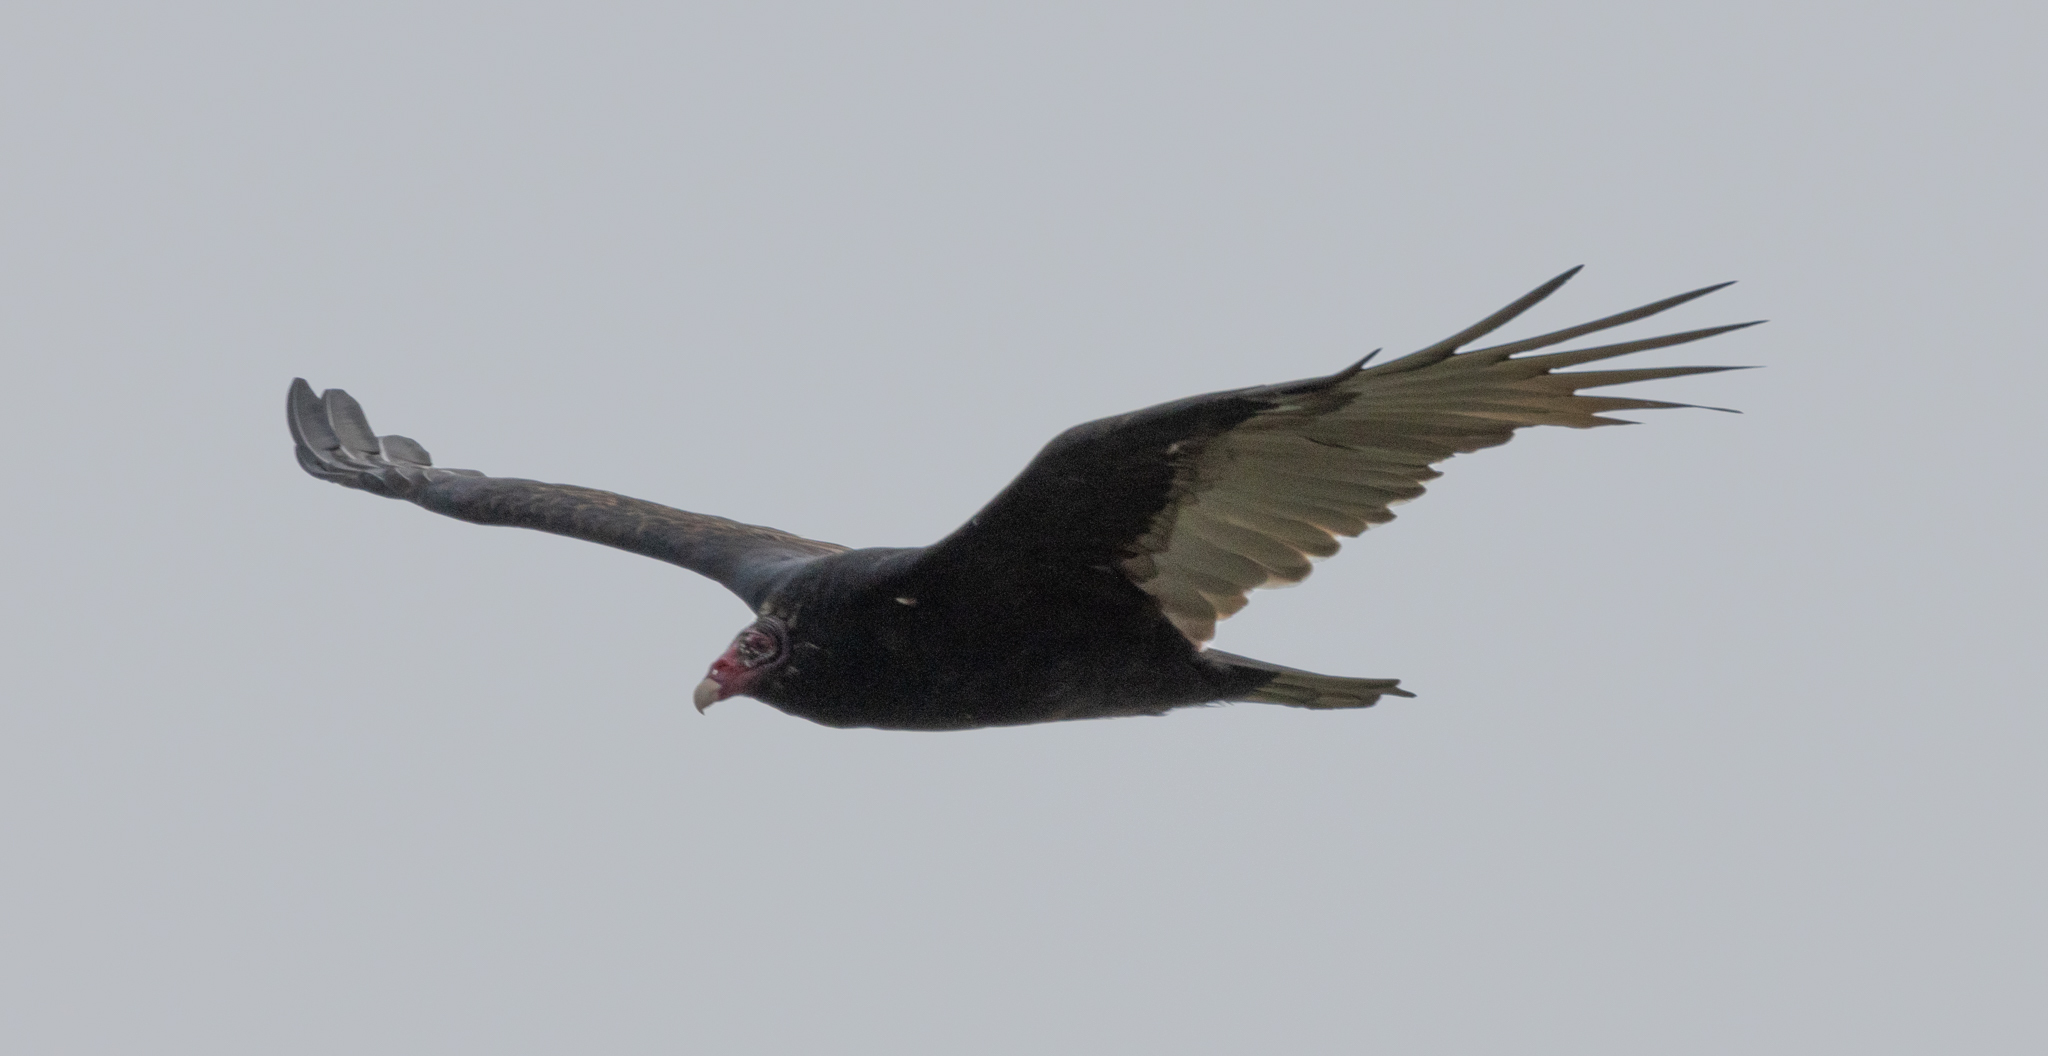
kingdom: Animalia
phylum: Chordata
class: Aves
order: Accipitriformes
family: Cathartidae
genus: Cathartes
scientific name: Cathartes aura
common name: Turkey vulture
